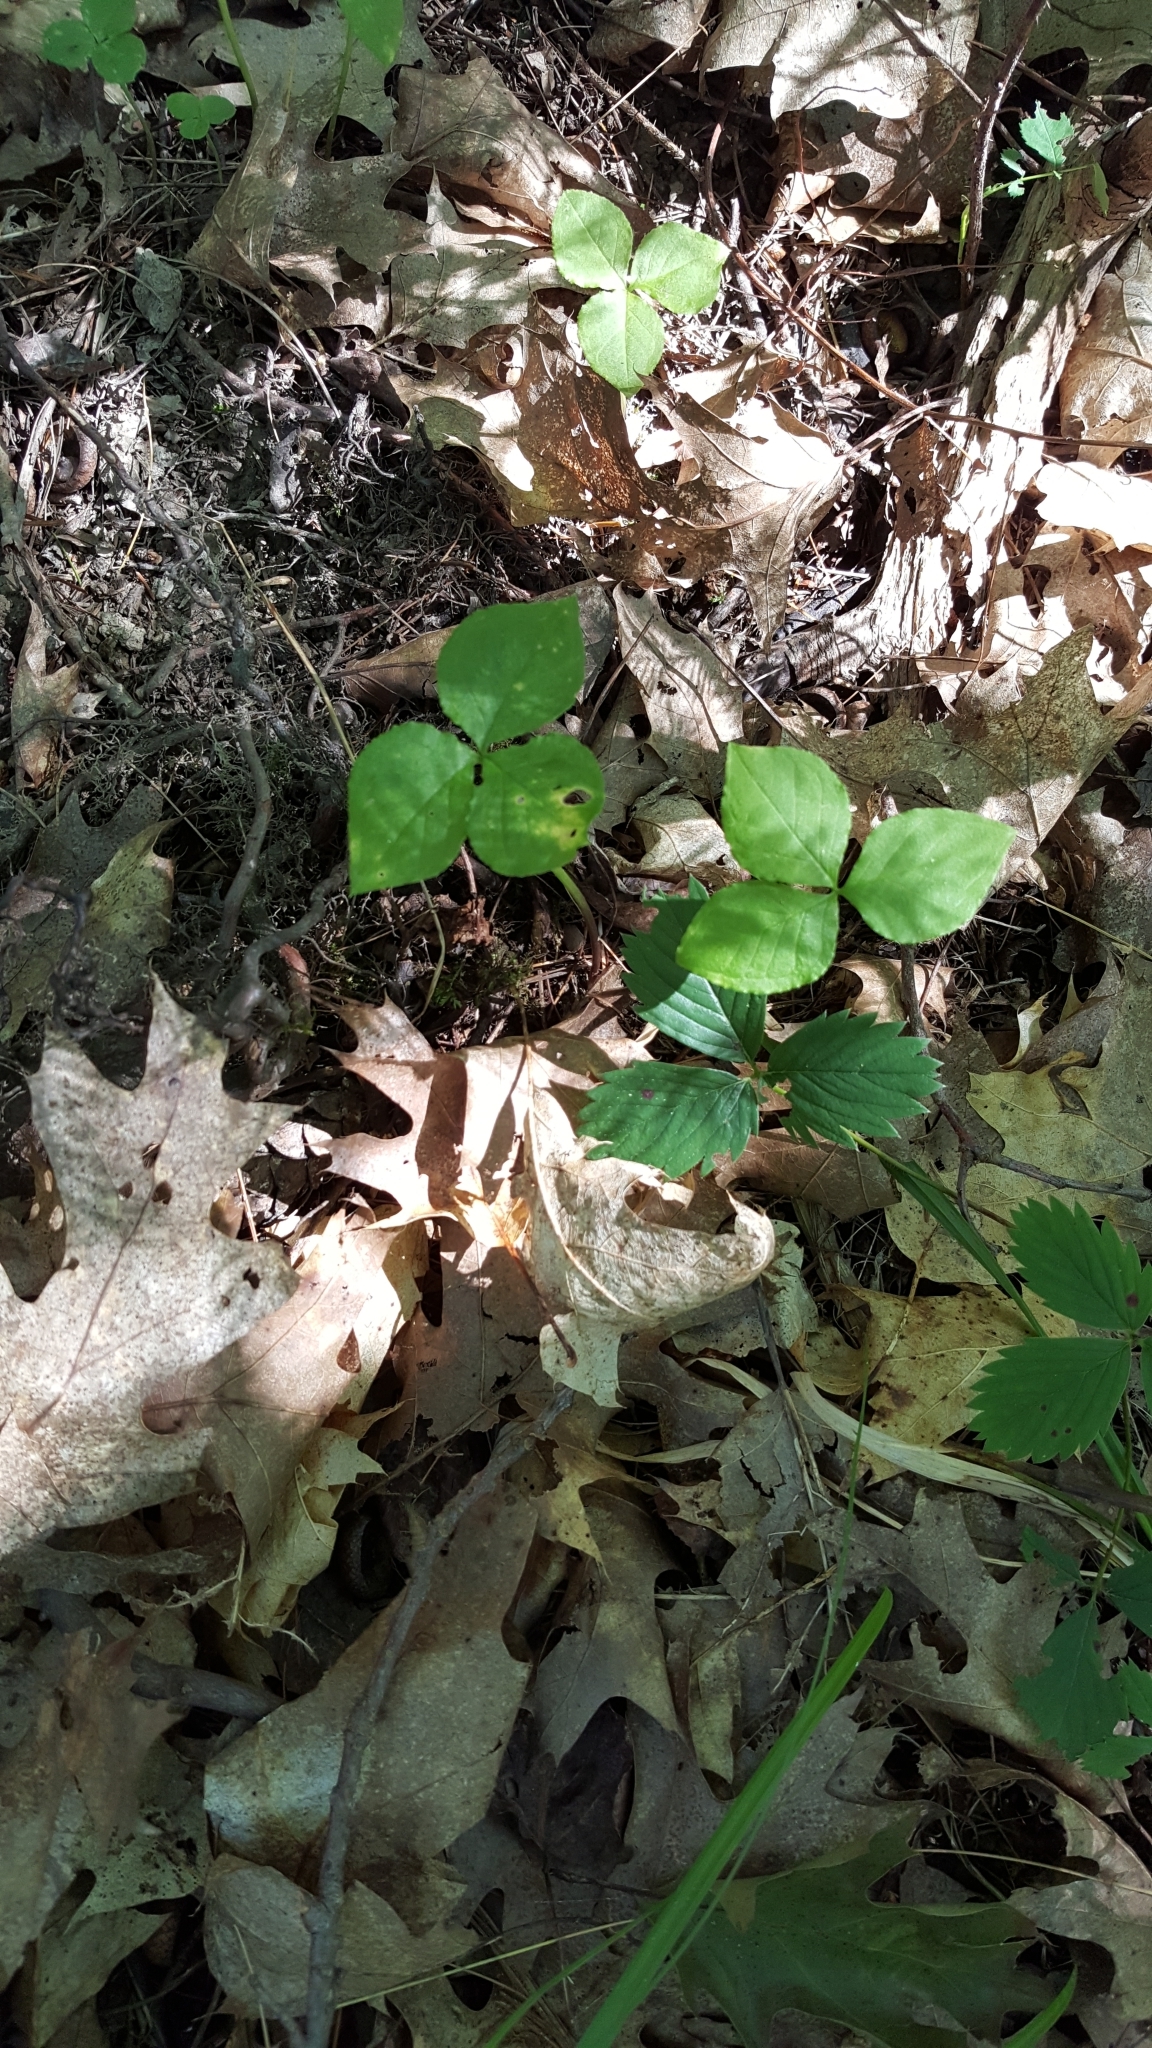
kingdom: Plantae
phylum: Tracheophyta
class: Liliopsida
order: Alismatales
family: Araceae
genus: Arisaema
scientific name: Arisaema triphyllum
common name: Jack-in-the-pulpit
